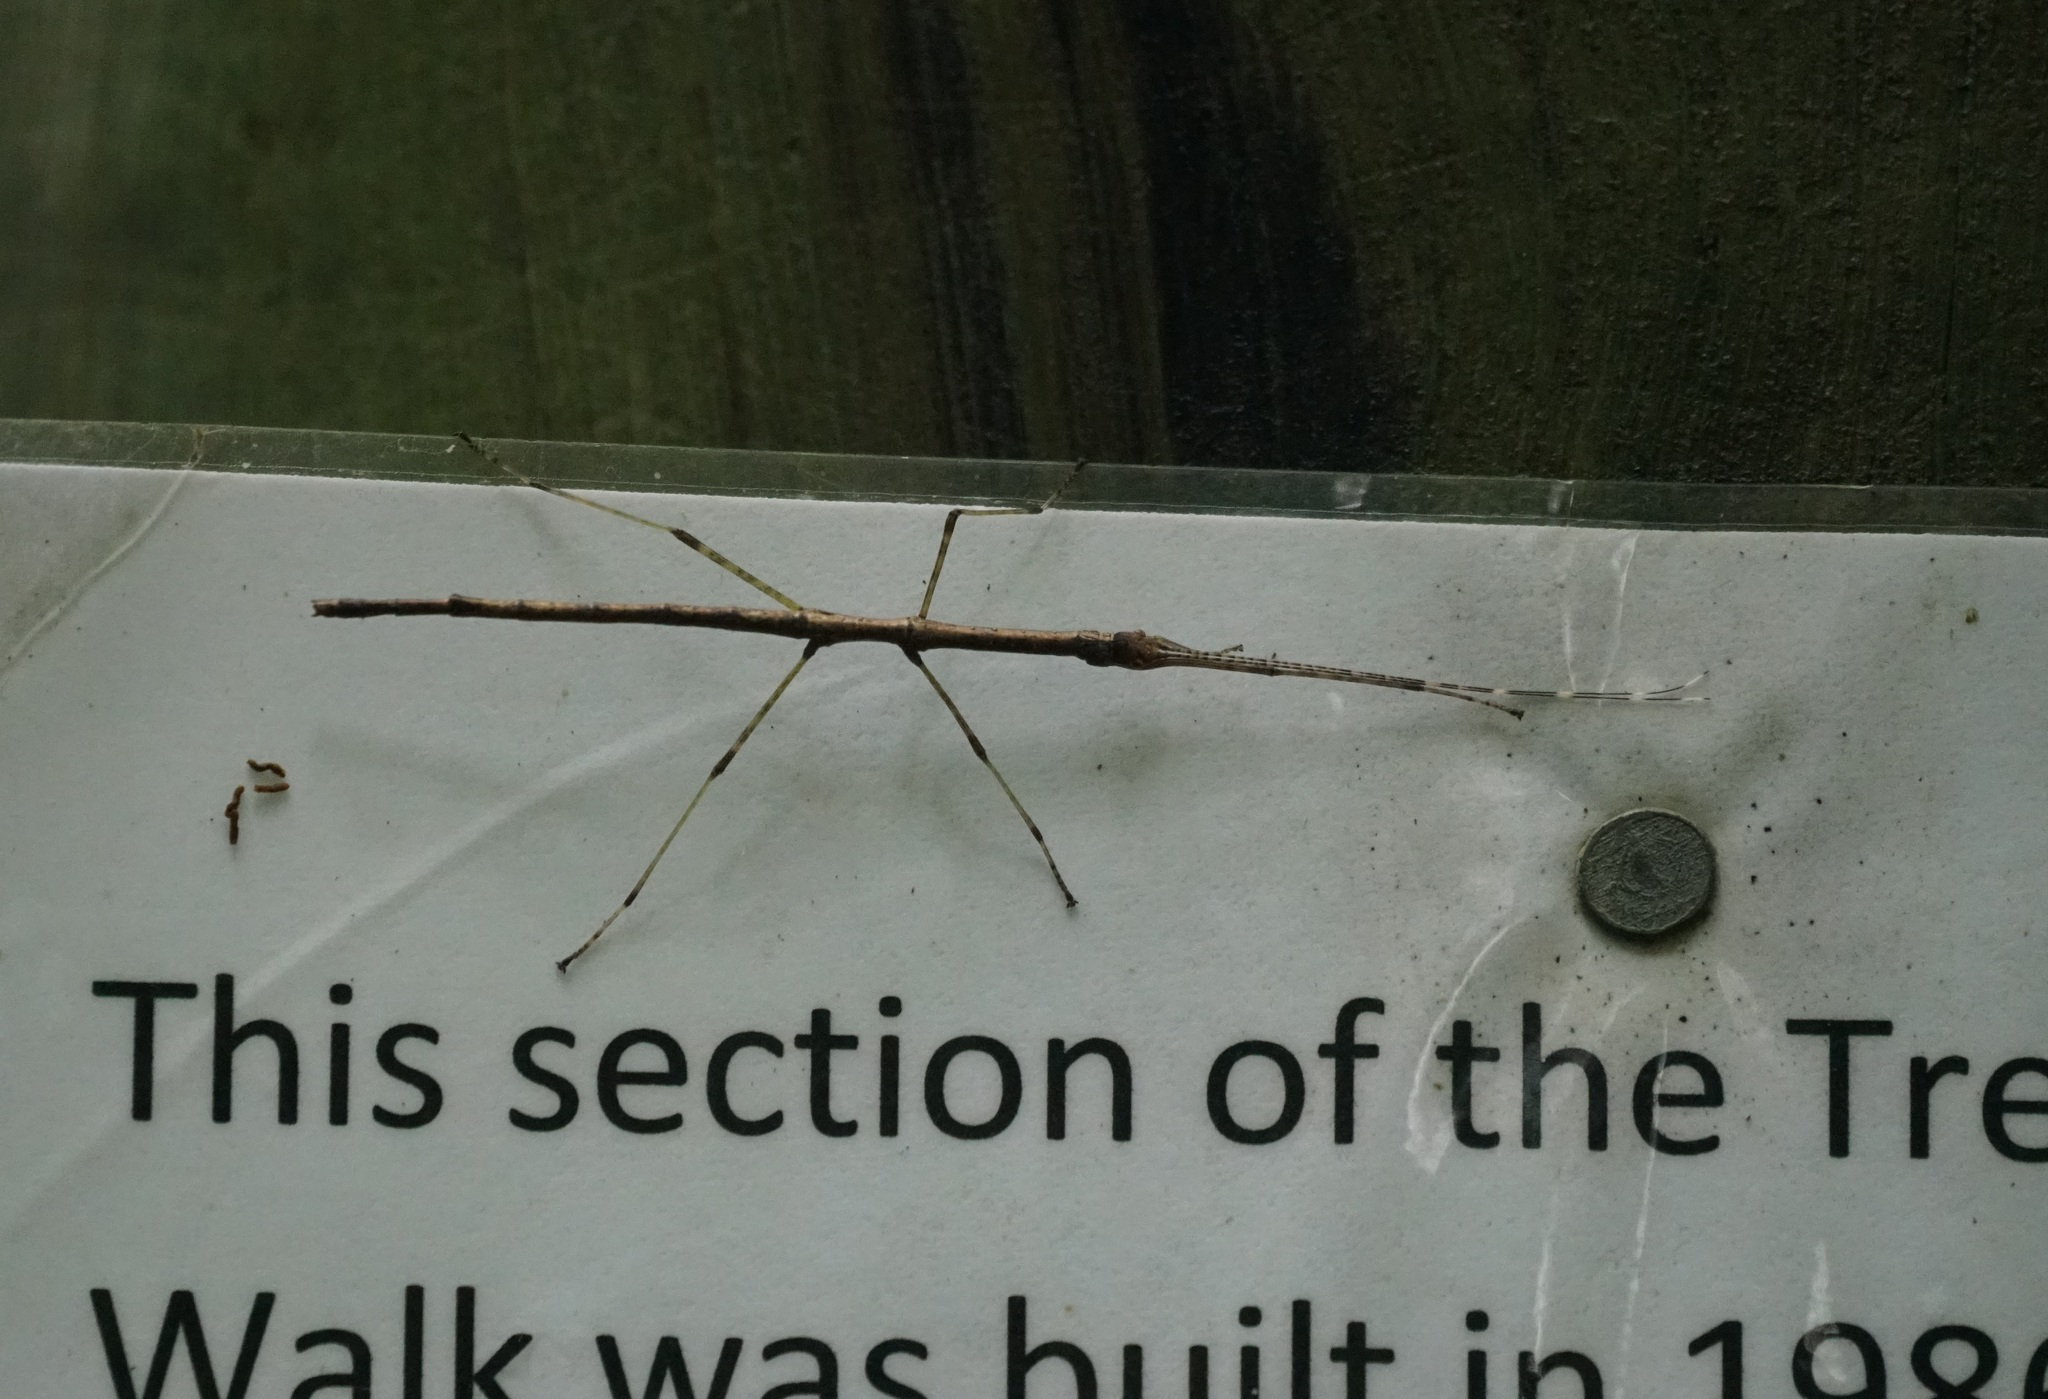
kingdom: Animalia
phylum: Arthropoda
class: Insecta
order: Phasmida
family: Lonchodidae
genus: Candovia
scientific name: Candovia strumosa
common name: Richmond river stick-insect
